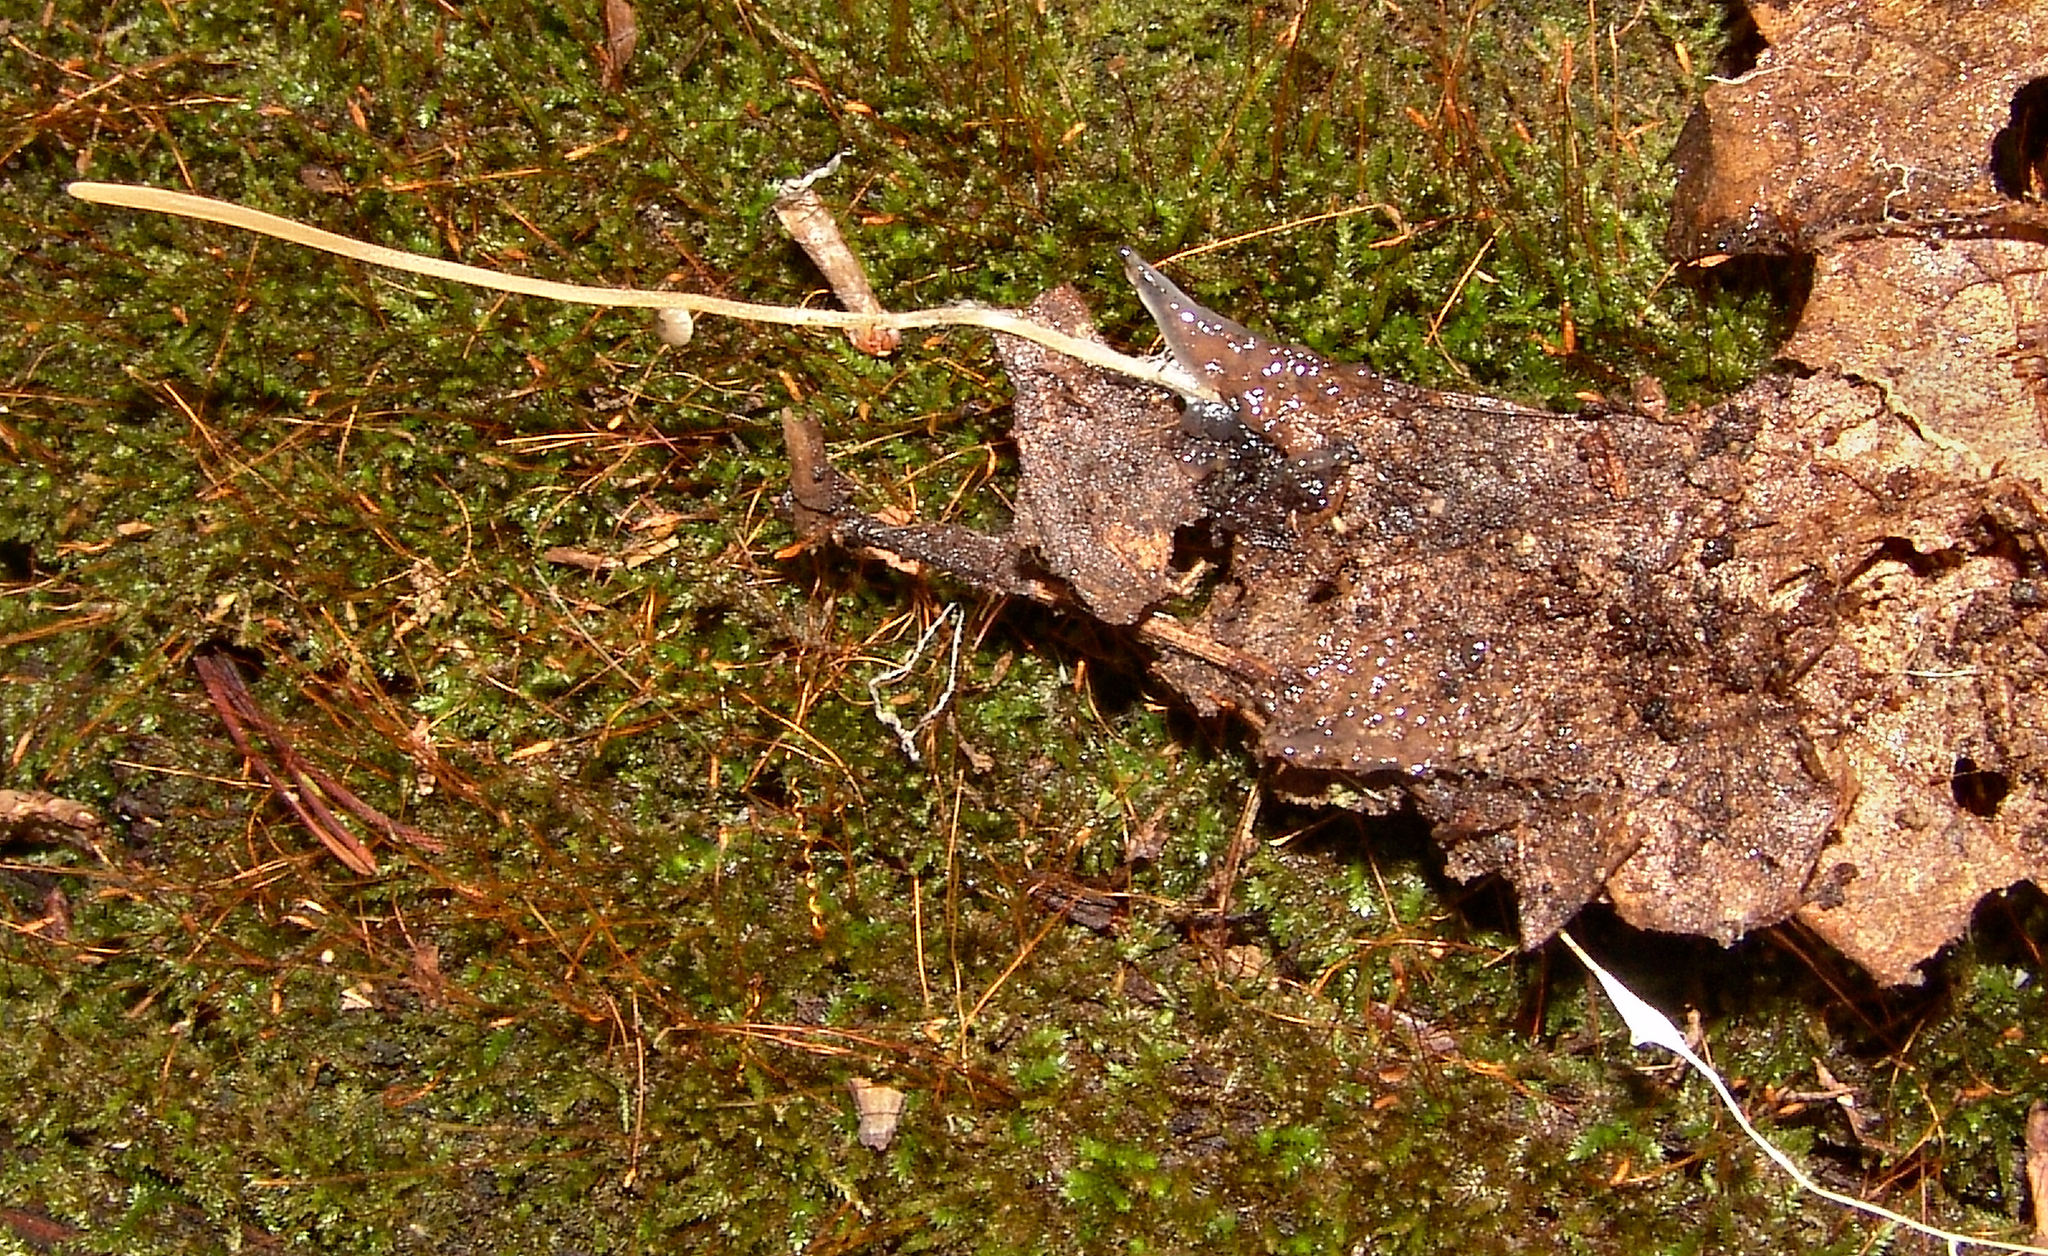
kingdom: Fungi
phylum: Basidiomycota
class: Agaricomycetes
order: Agaricales
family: Typhulaceae
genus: Typhula
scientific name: Typhula juncea
